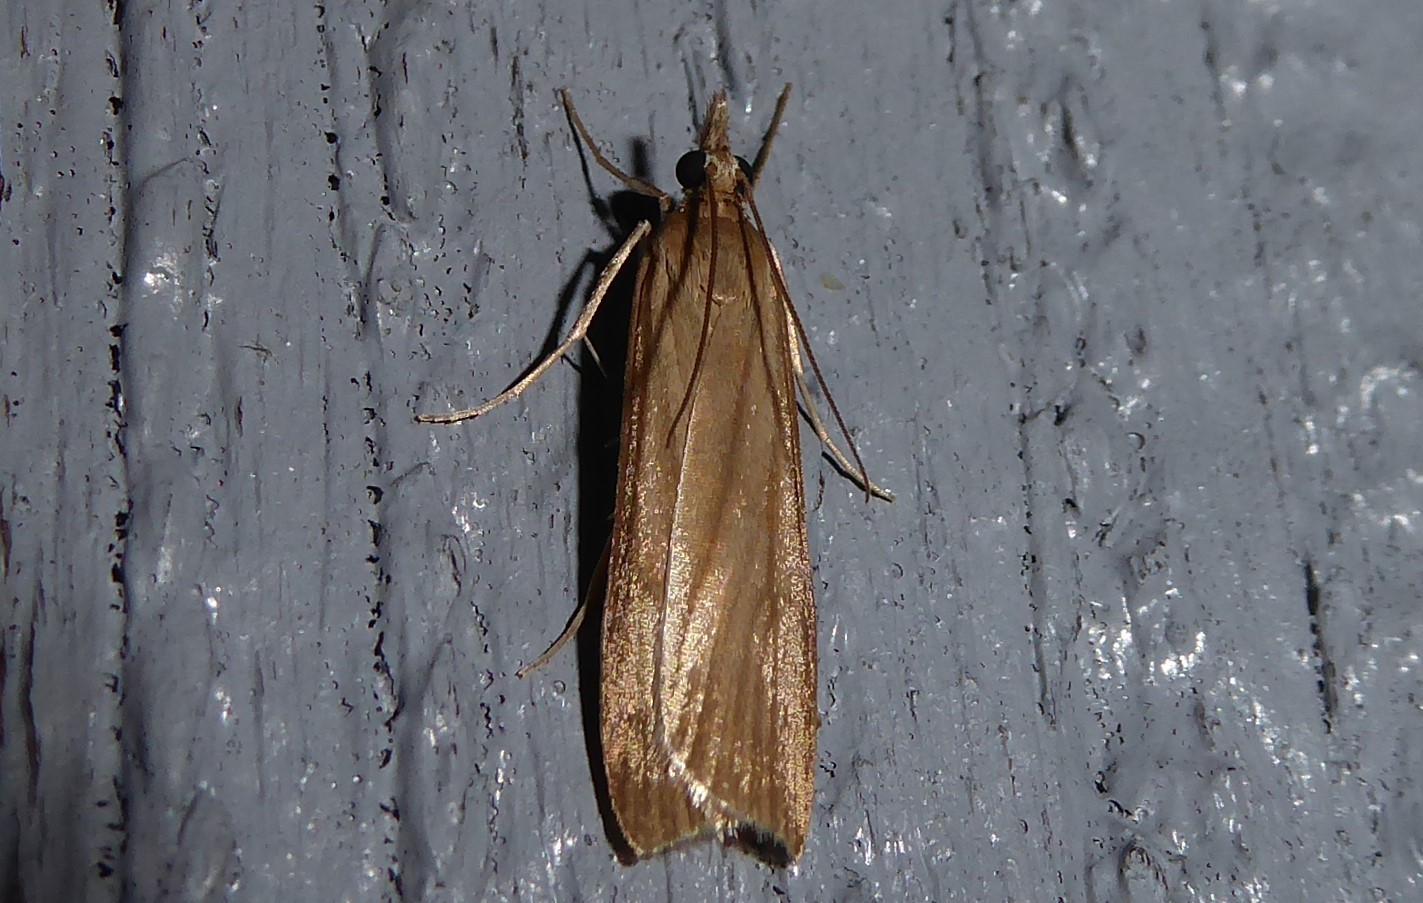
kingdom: Animalia
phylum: Arthropoda
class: Insecta
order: Lepidoptera
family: Crambidae
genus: Scoparia
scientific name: Scoparia augastis
